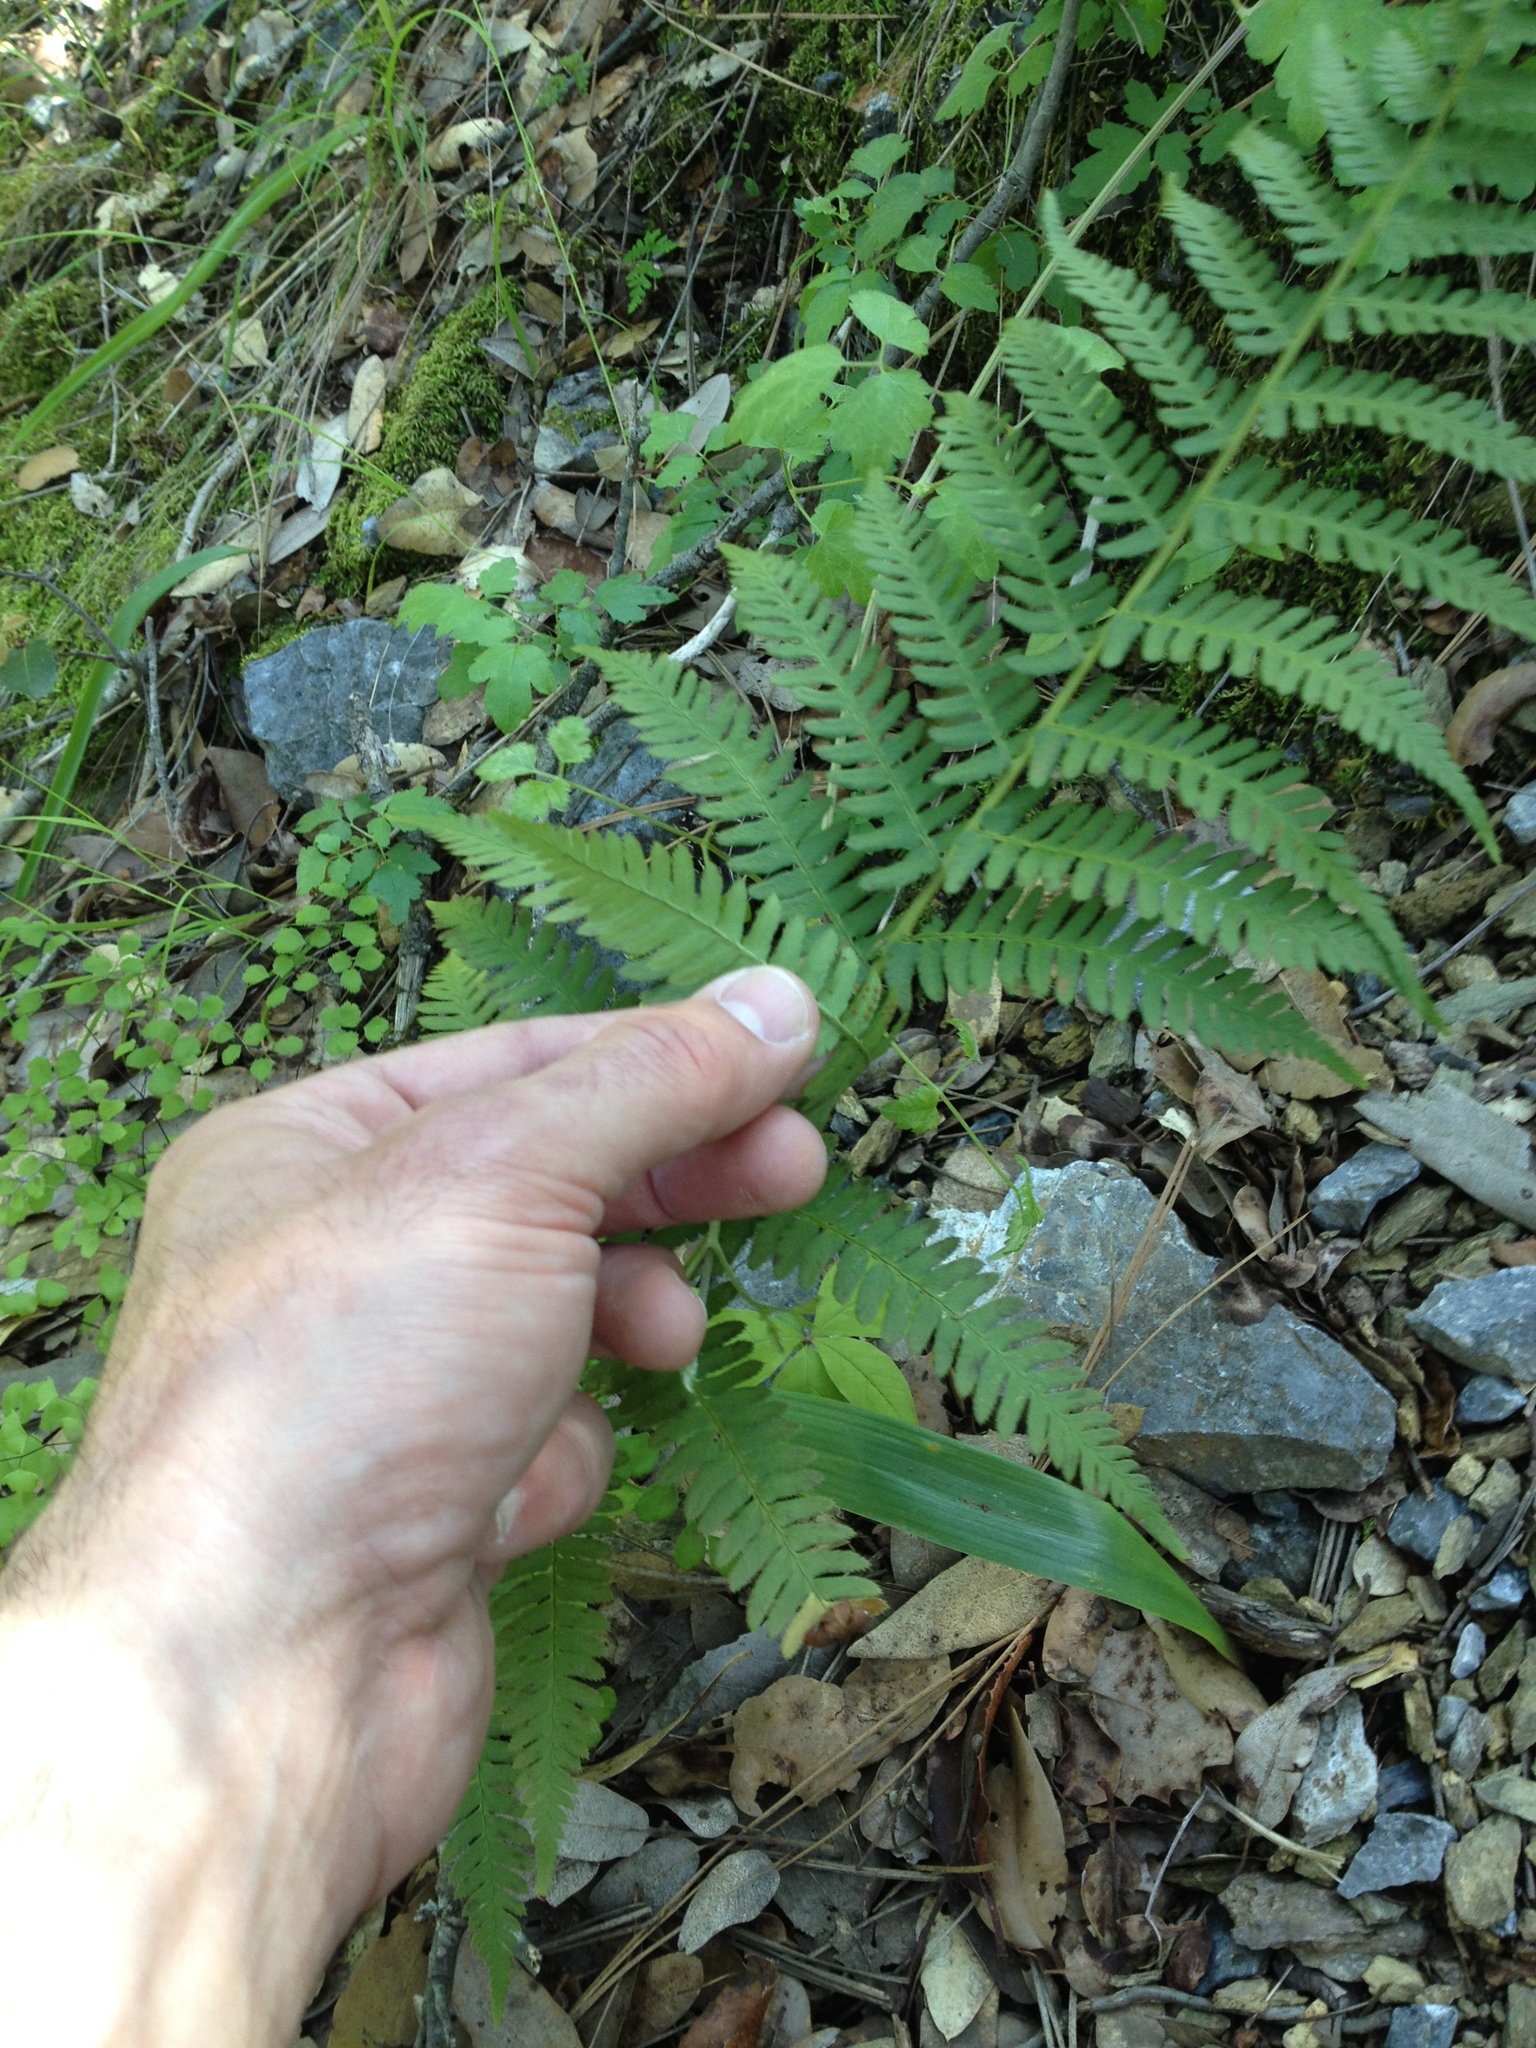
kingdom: Plantae
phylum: Tracheophyta
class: Polypodiopsida
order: Polypodiales
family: Dryopteridaceae
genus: Dryopteris
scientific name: Dryopteris arguta
